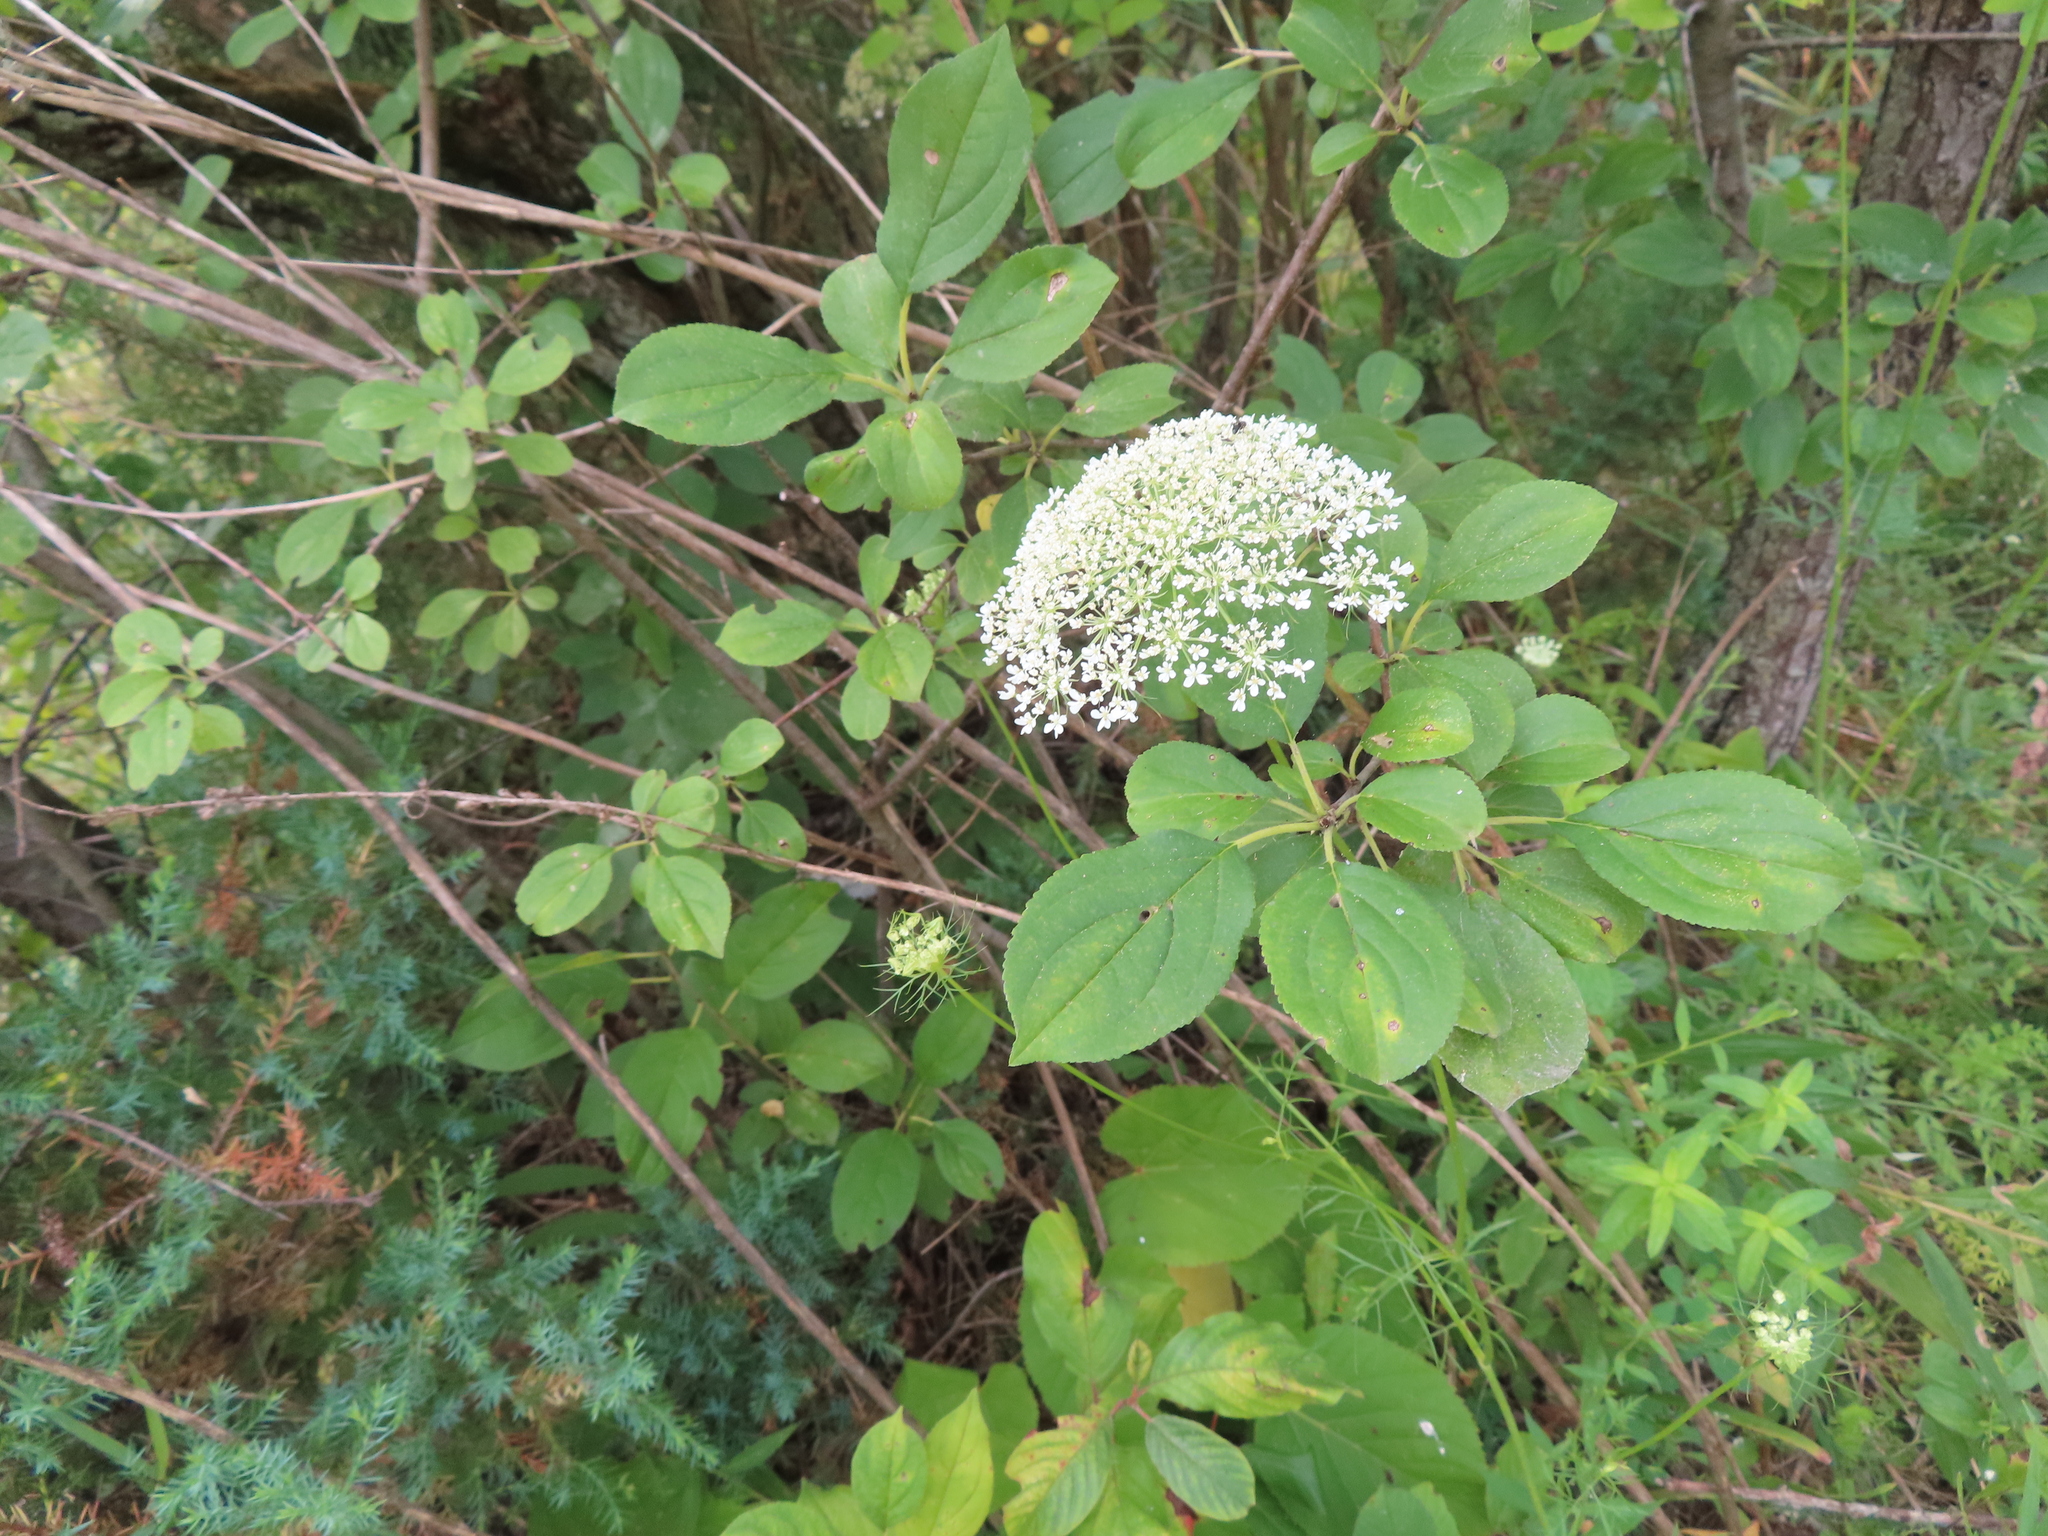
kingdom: Plantae
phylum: Tracheophyta
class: Magnoliopsida
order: Apiales
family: Apiaceae
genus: Daucus
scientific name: Daucus carota
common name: Wild carrot
